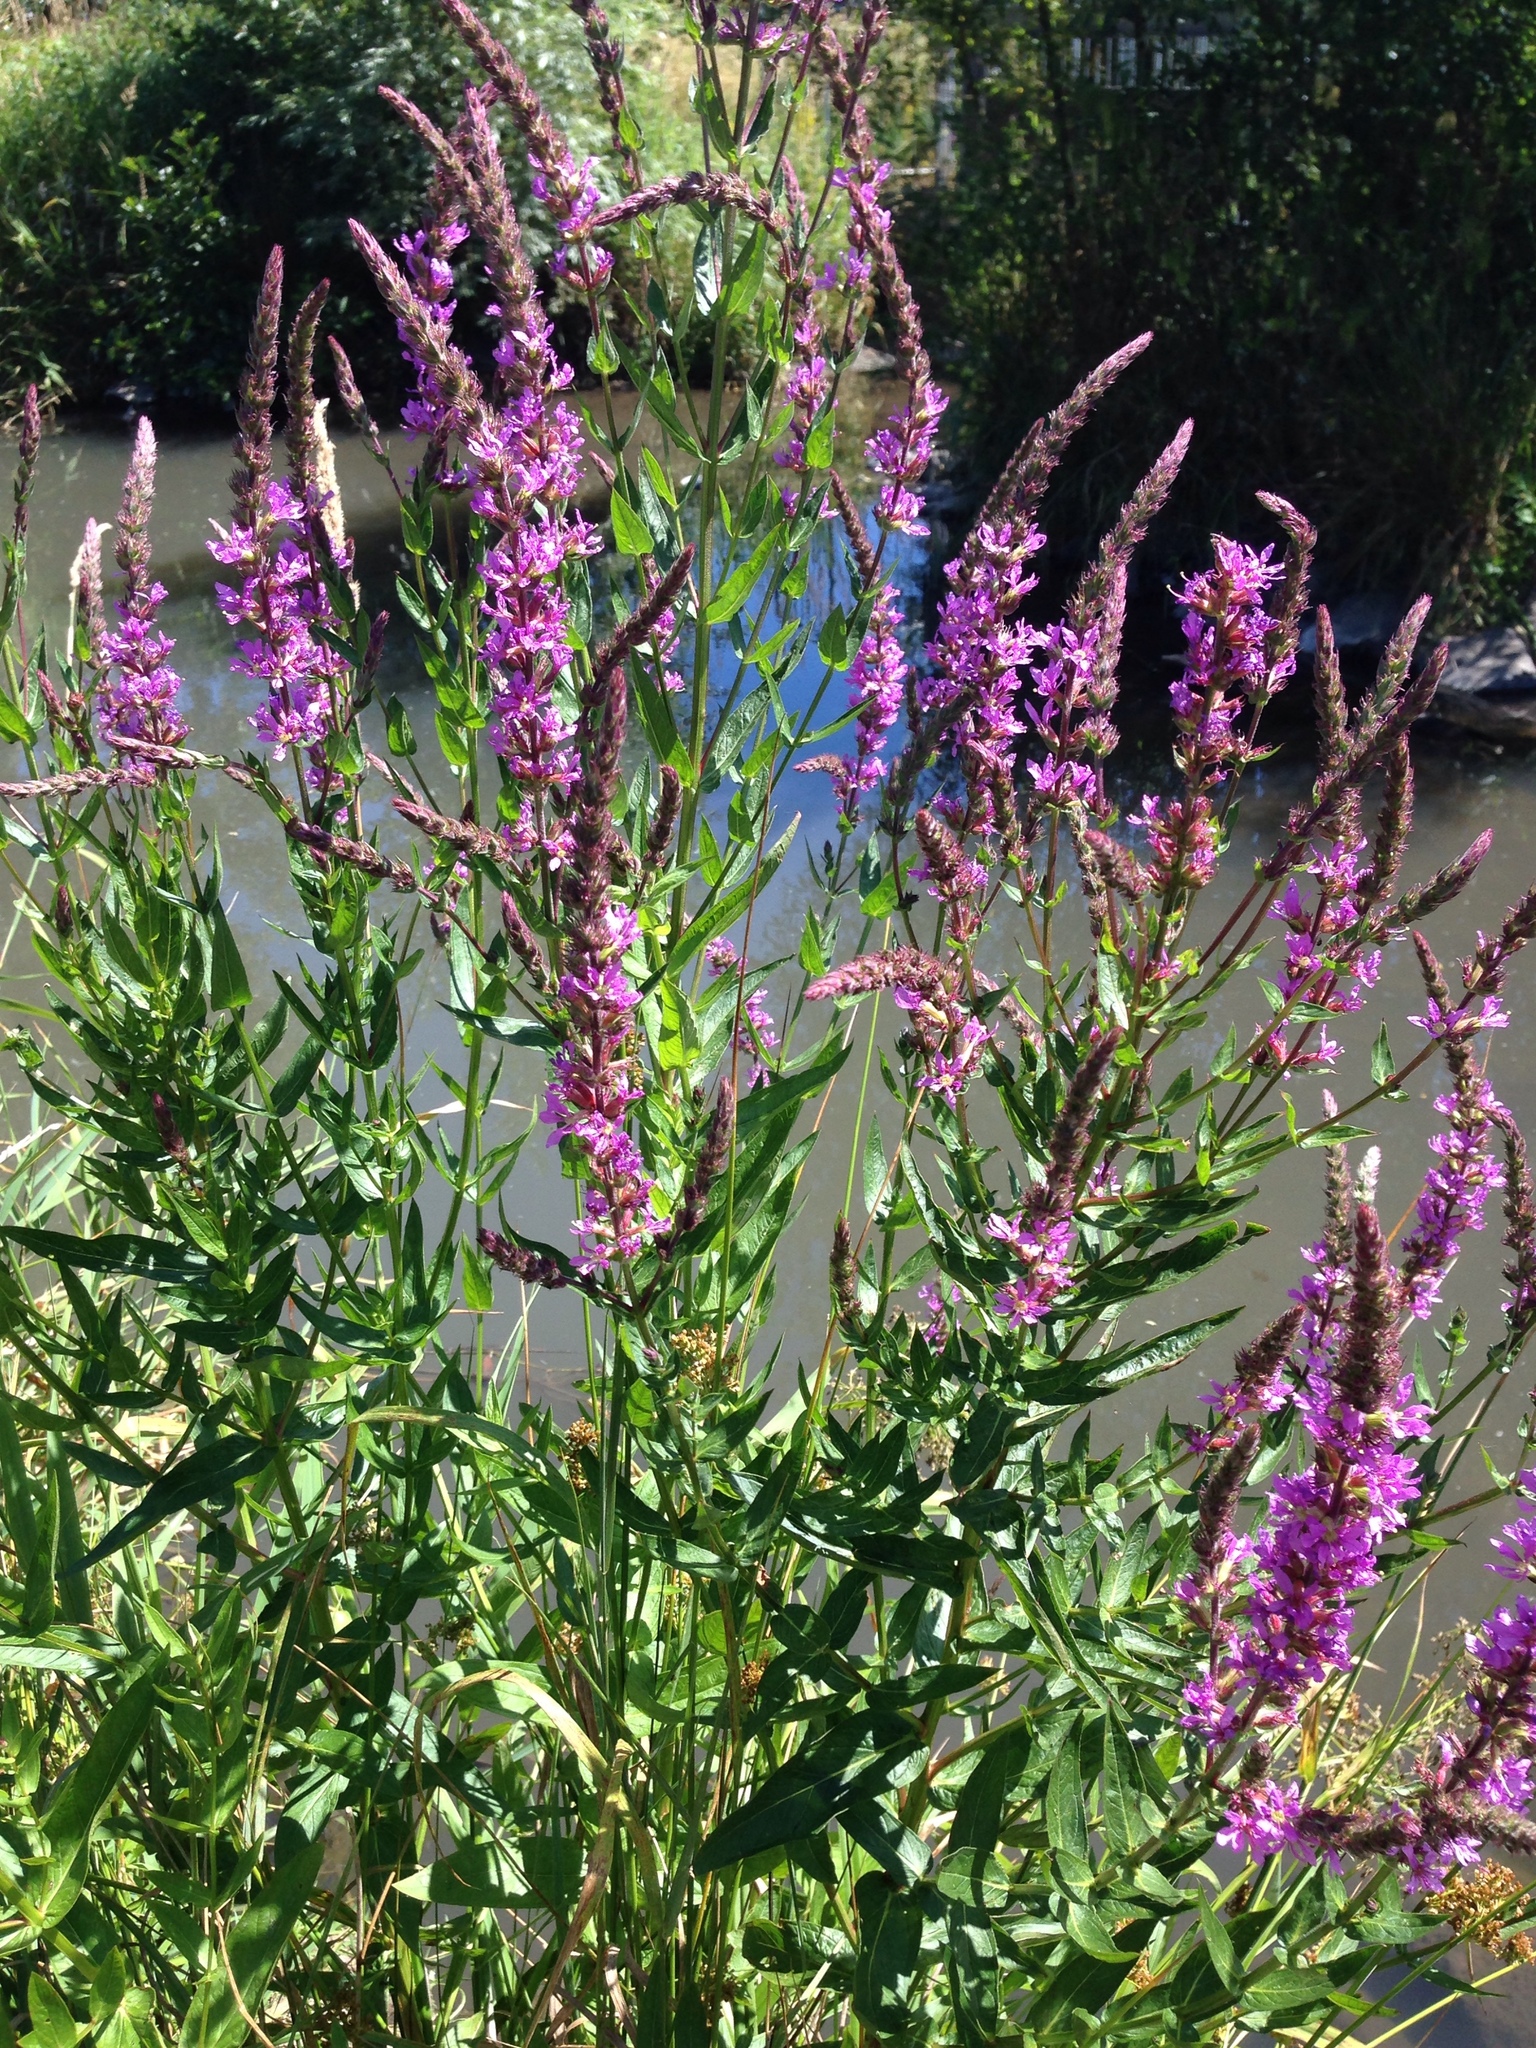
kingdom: Plantae
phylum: Tracheophyta
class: Magnoliopsida
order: Myrtales
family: Lythraceae
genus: Lythrum
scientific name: Lythrum salicaria
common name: Purple loosestrife
